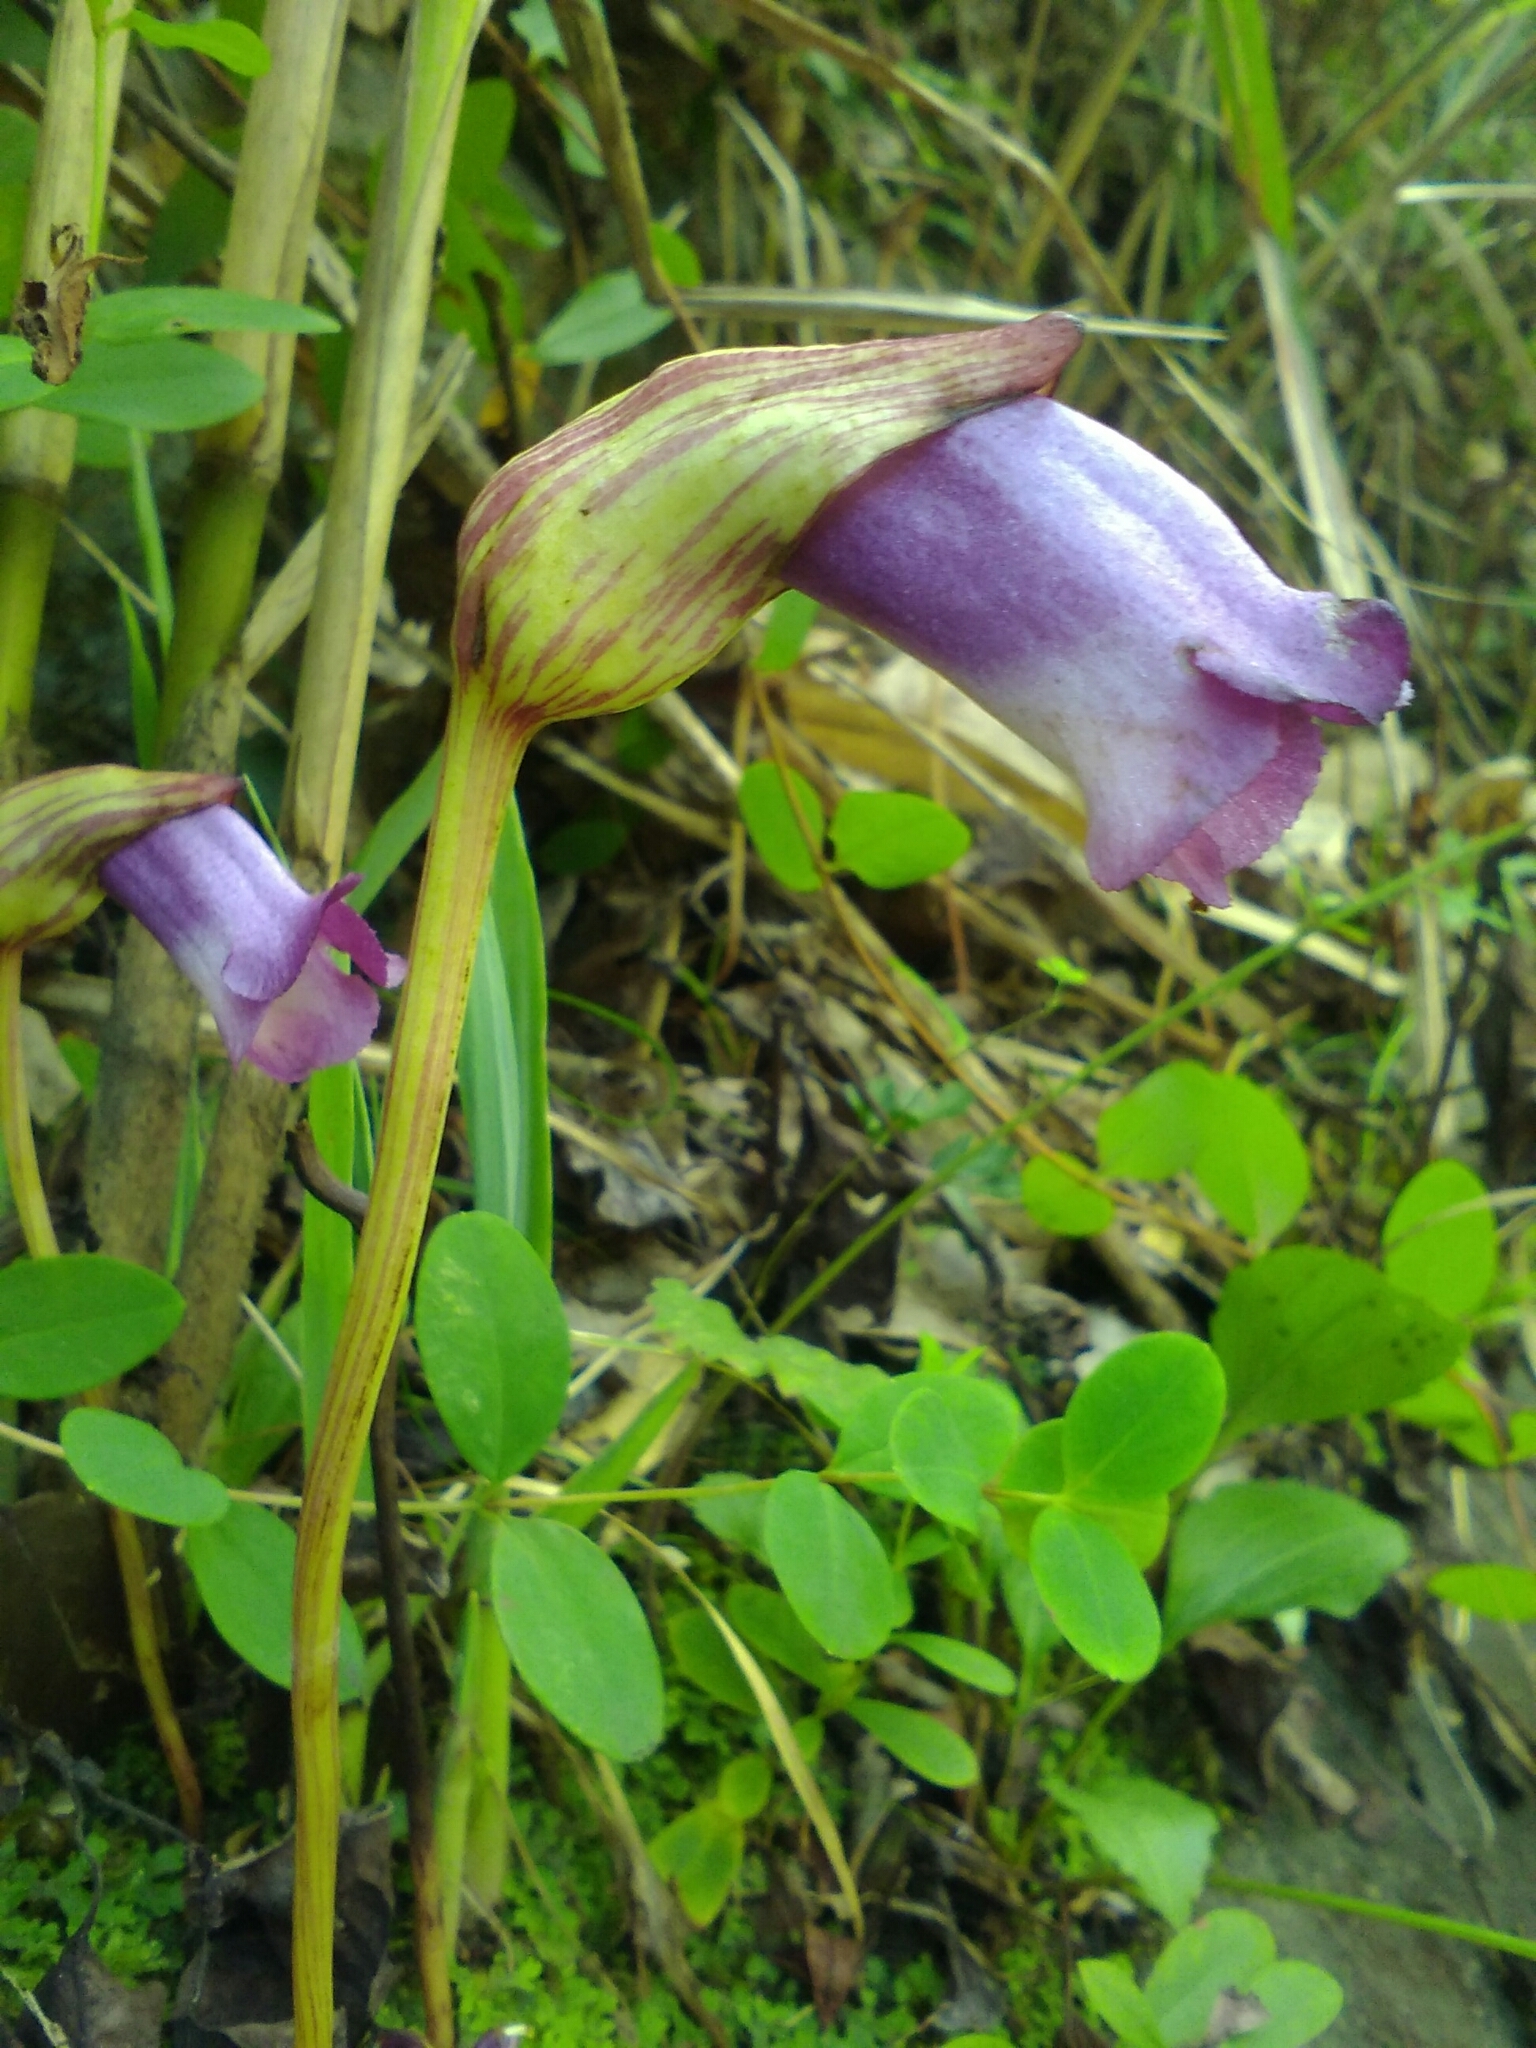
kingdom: Plantae
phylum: Tracheophyta
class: Magnoliopsida
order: Lamiales
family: Orobanchaceae
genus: Aeginetia
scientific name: Aeginetia indica
